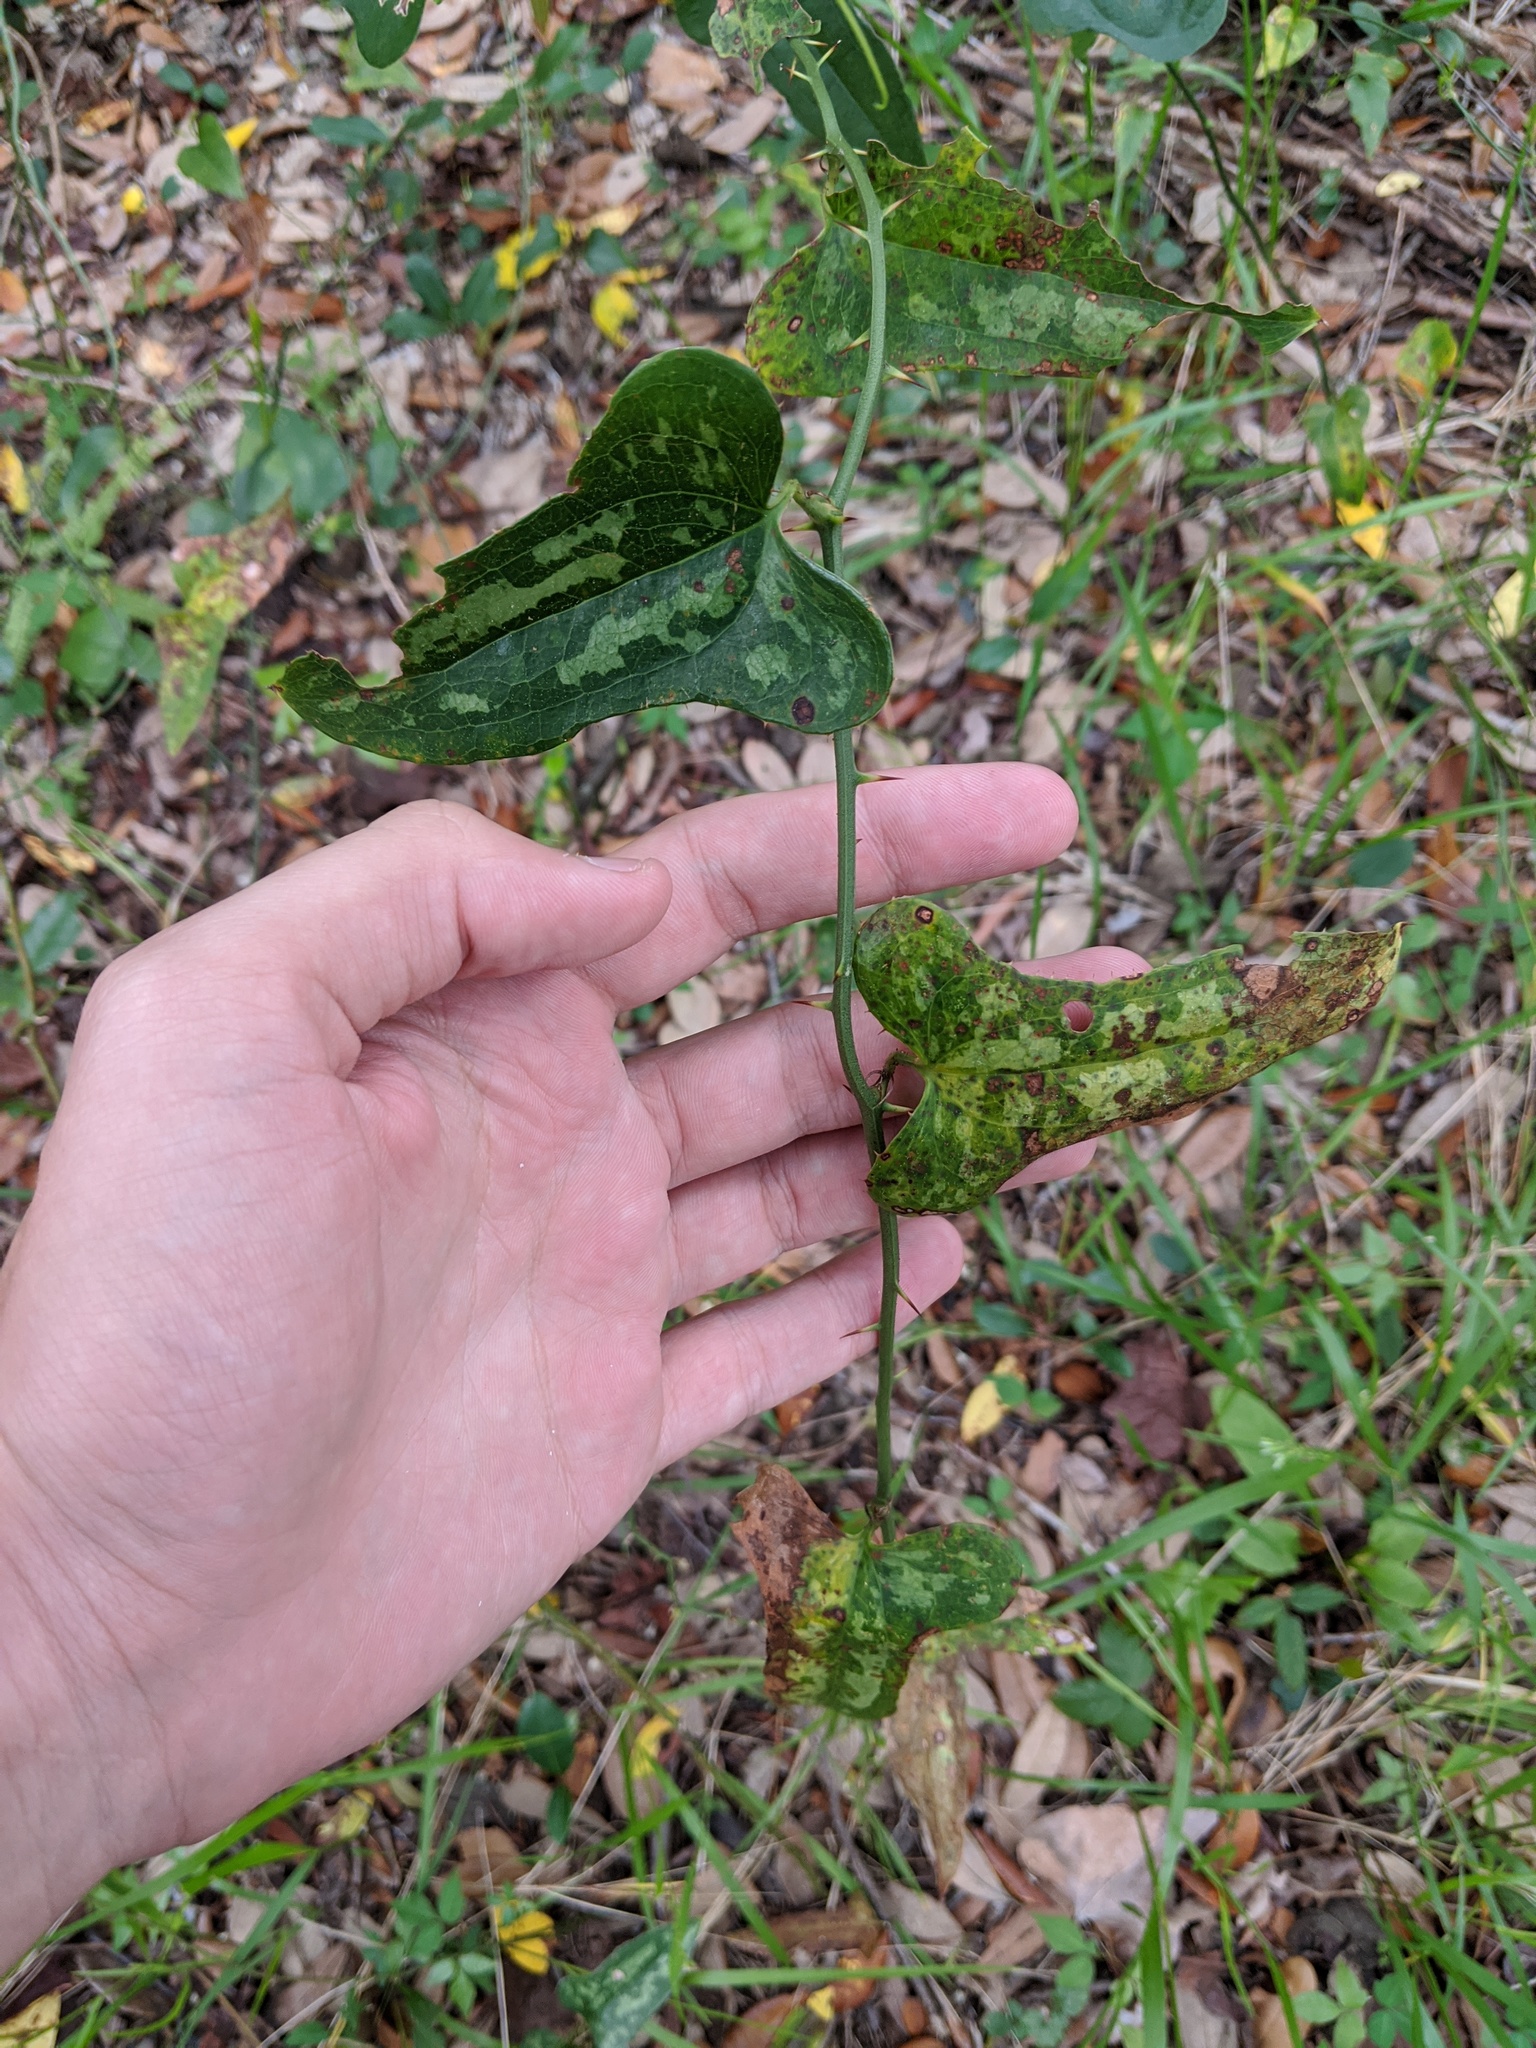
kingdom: Plantae
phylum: Tracheophyta
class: Liliopsida
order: Liliales
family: Smilacaceae
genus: Smilax
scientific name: Smilax bona-nox
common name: Catbrier
